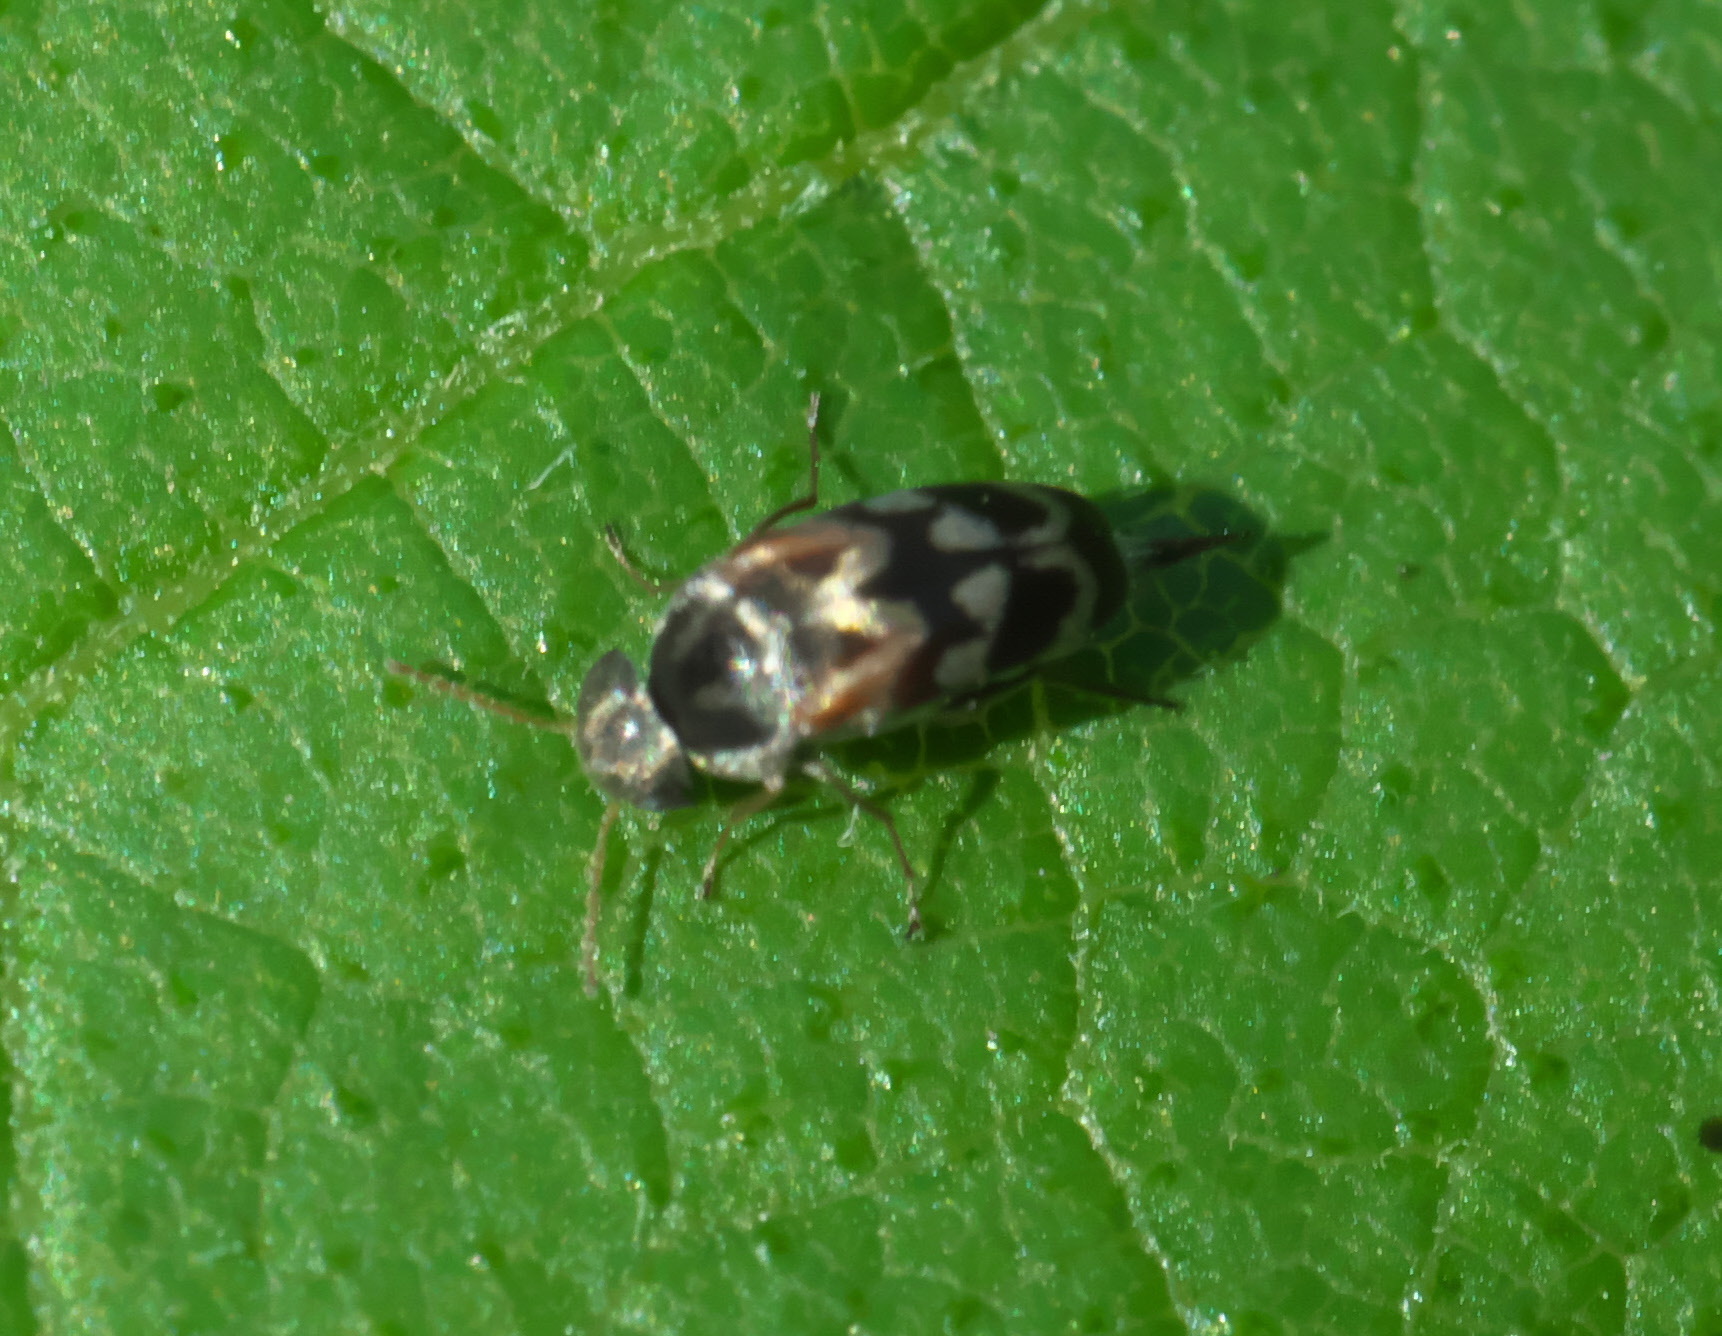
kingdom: Animalia
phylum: Arthropoda
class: Insecta
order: Coleoptera
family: Mordellidae
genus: Paramordellaria
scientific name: Paramordellaria carinata
